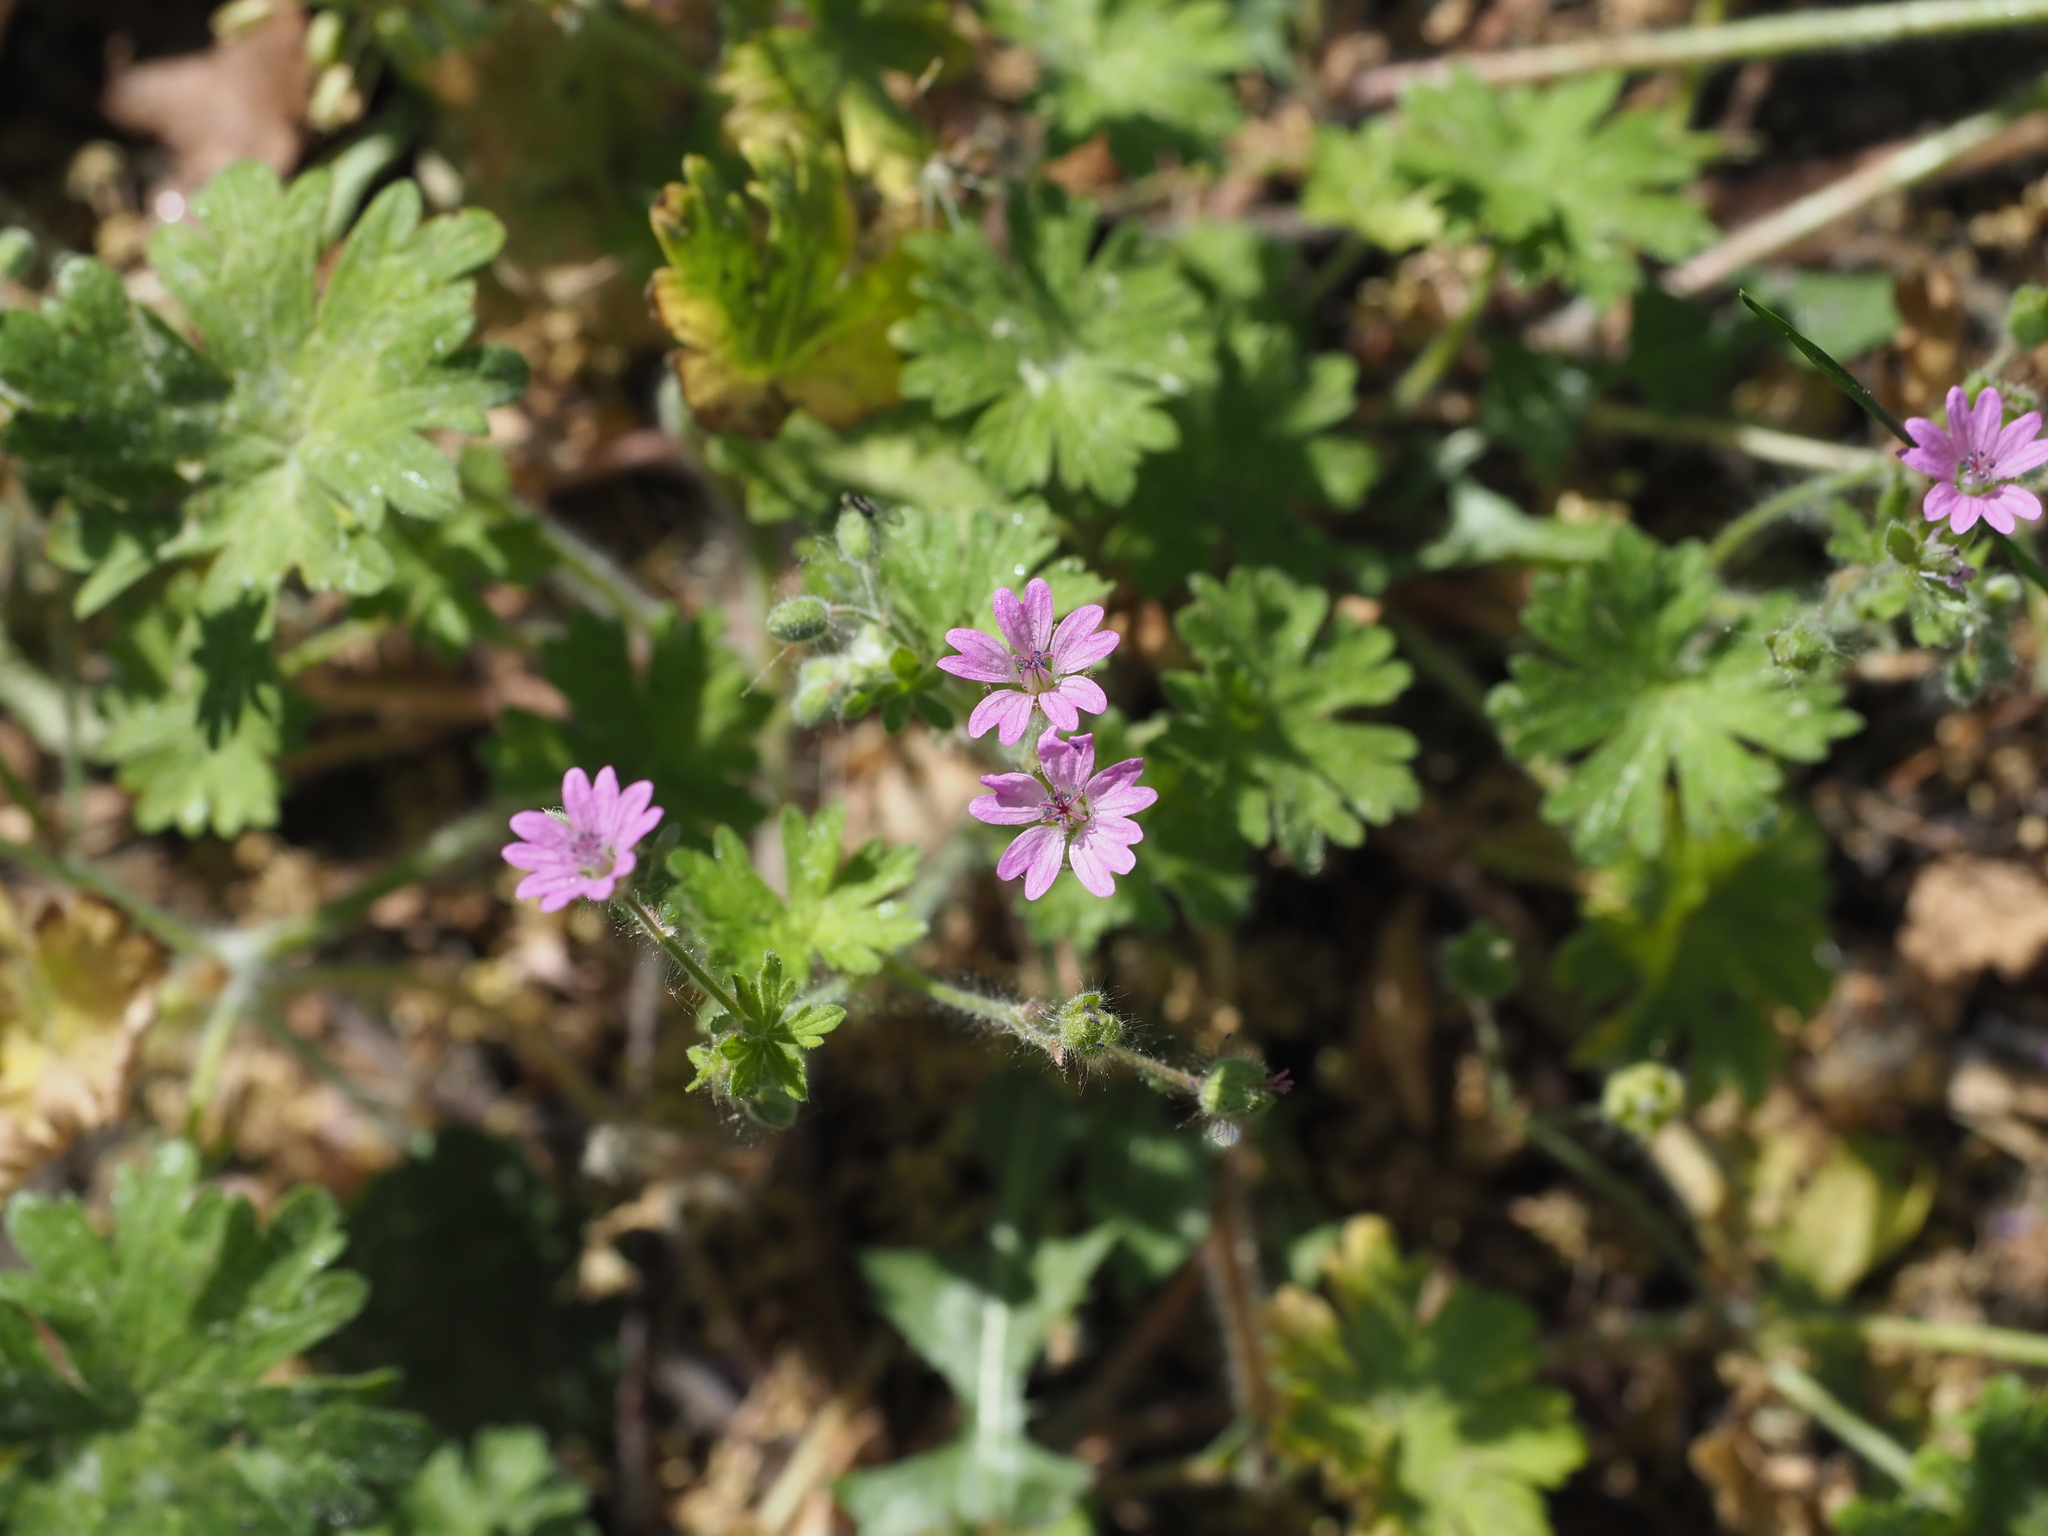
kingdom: Plantae
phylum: Tracheophyta
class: Magnoliopsida
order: Geraniales
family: Geraniaceae
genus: Geranium
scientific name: Geranium molle
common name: Dove's-foot crane's-bill
